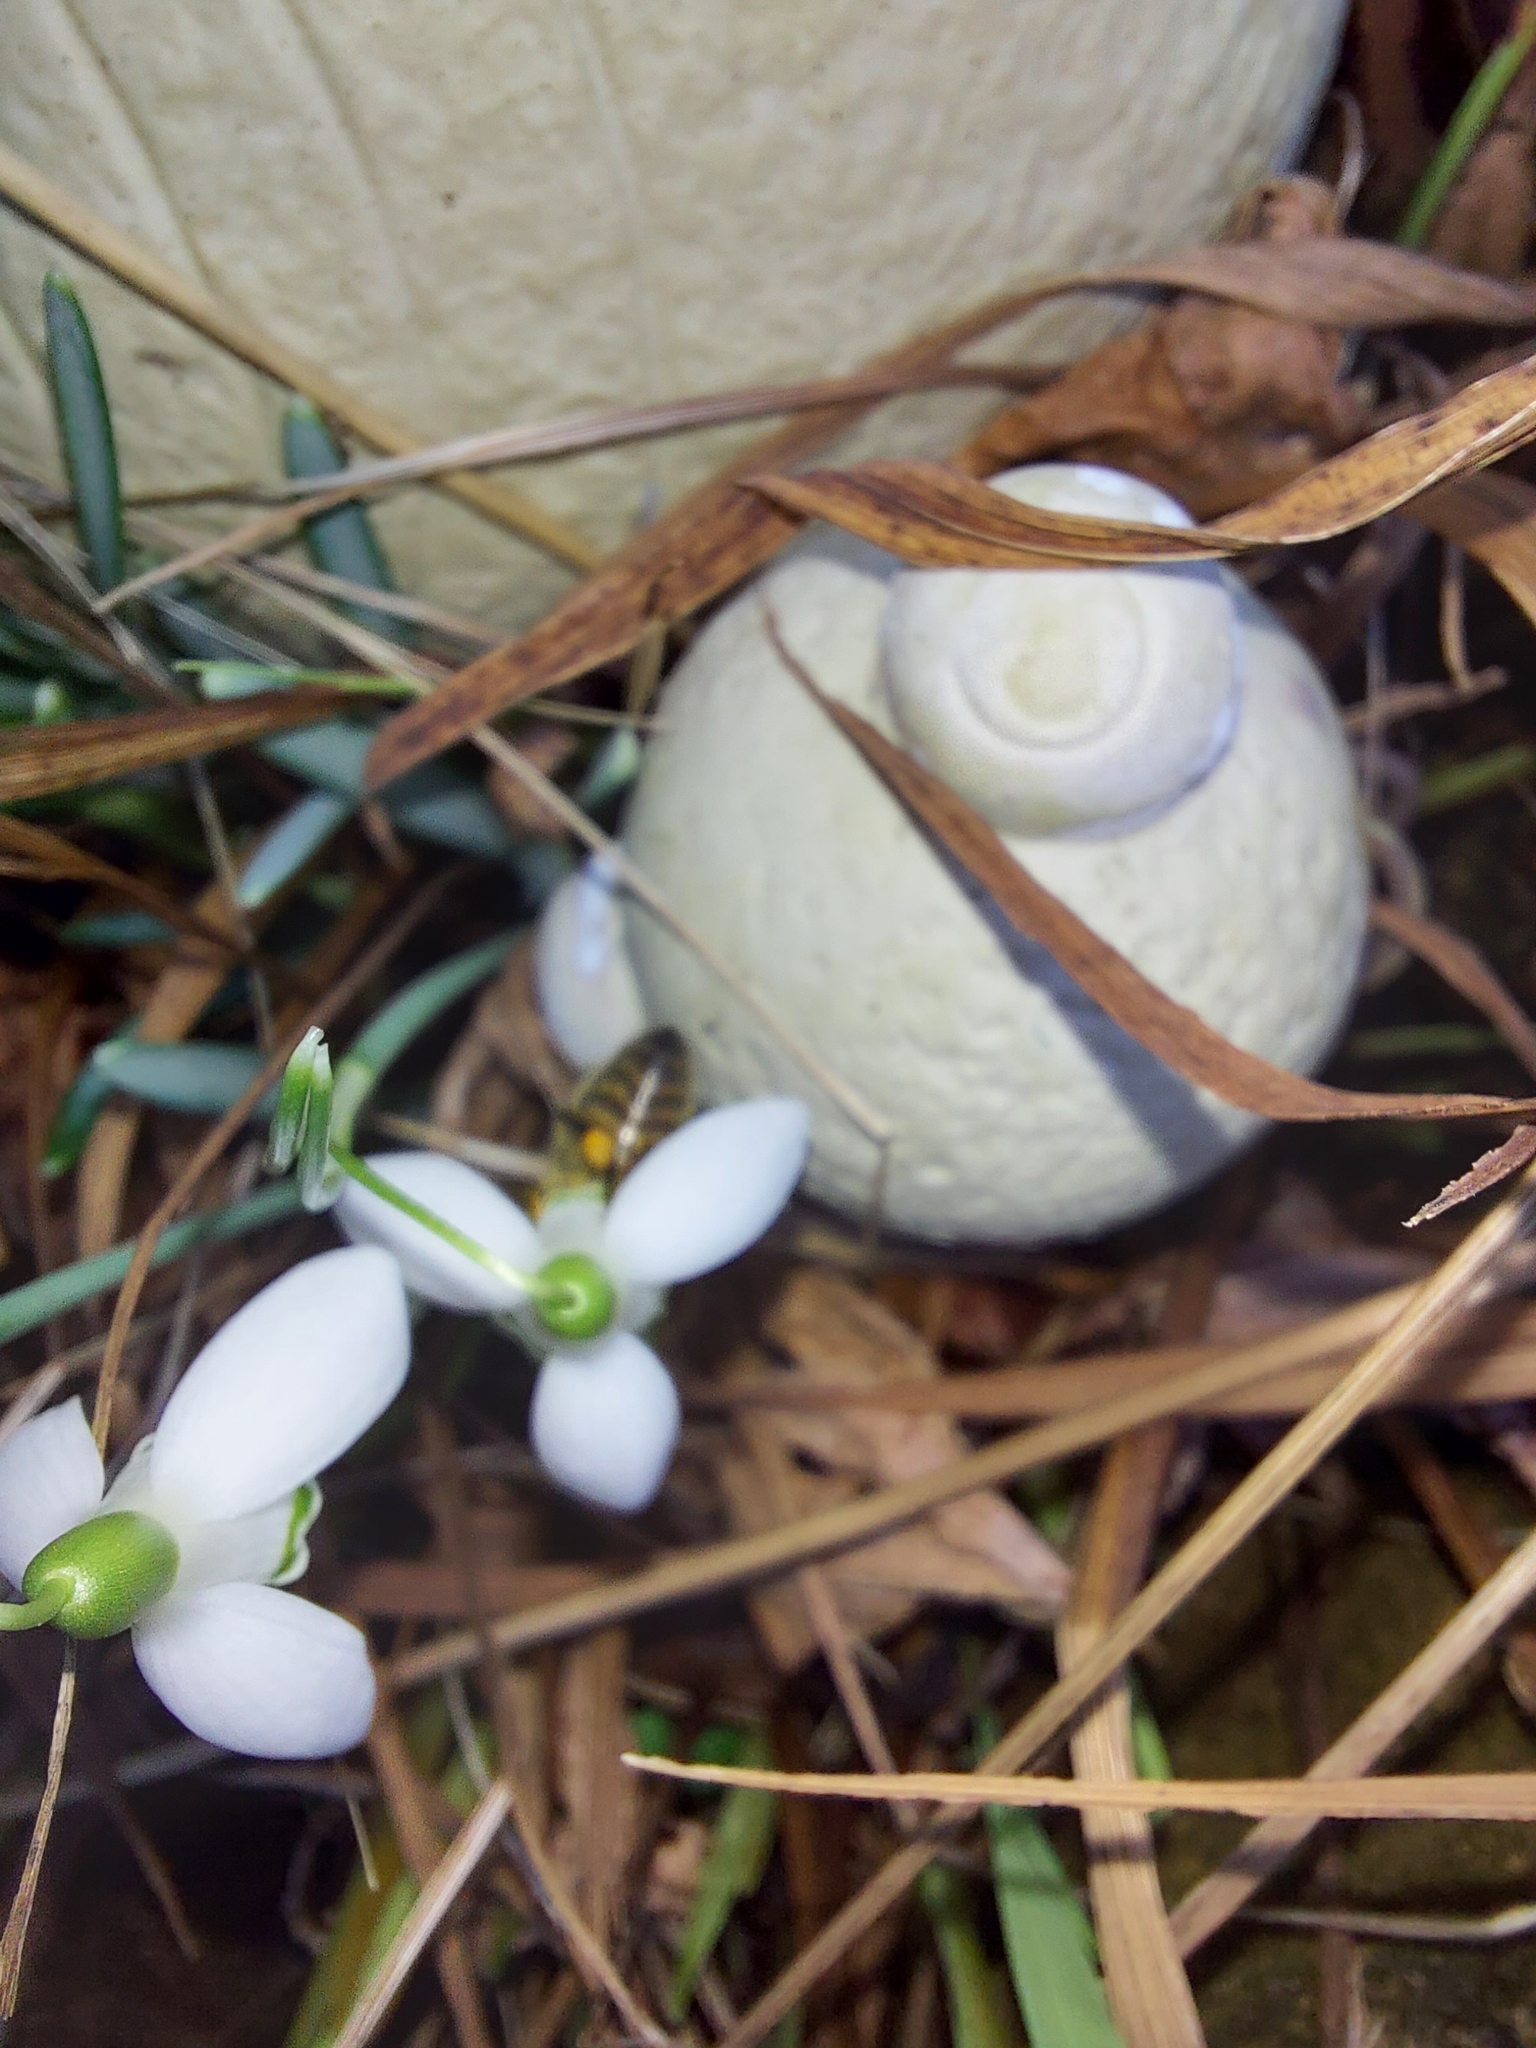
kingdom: Animalia
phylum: Arthropoda
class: Insecta
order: Hymenoptera
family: Apidae
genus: Apis
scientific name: Apis mellifera
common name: Honey bee
